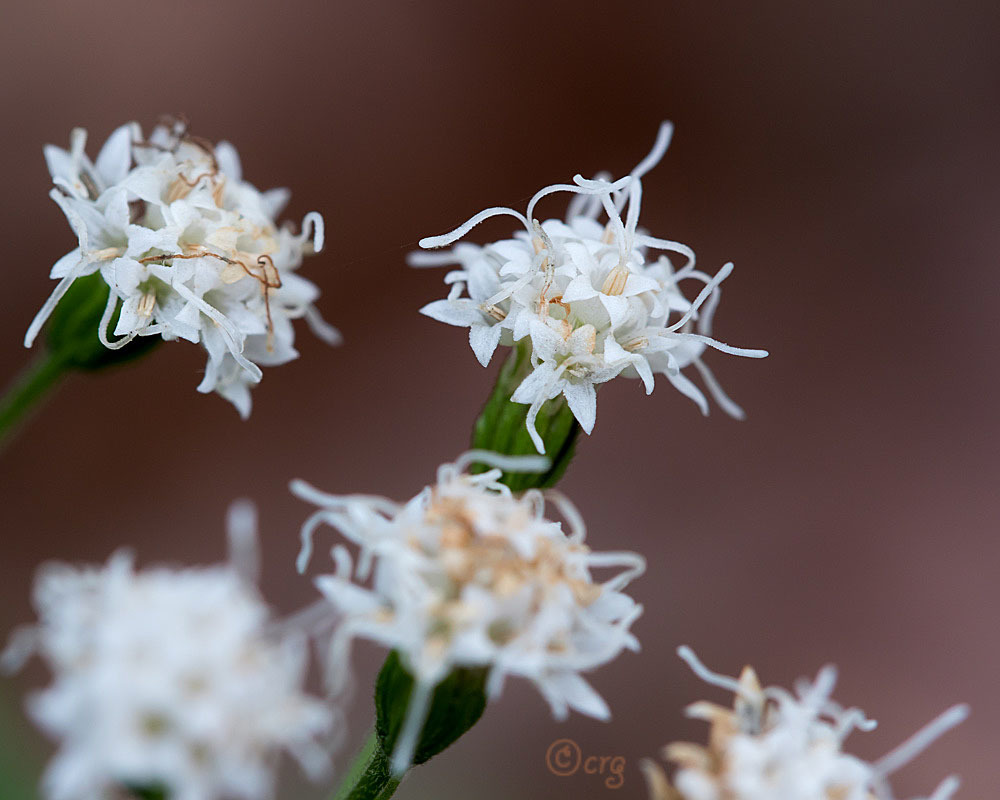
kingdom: Plantae
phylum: Tracheophyta
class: Magnoliopsida
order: Asterales
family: Asteraceae
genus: Ageratina
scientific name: Ageratina altissima
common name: White snakeroot
